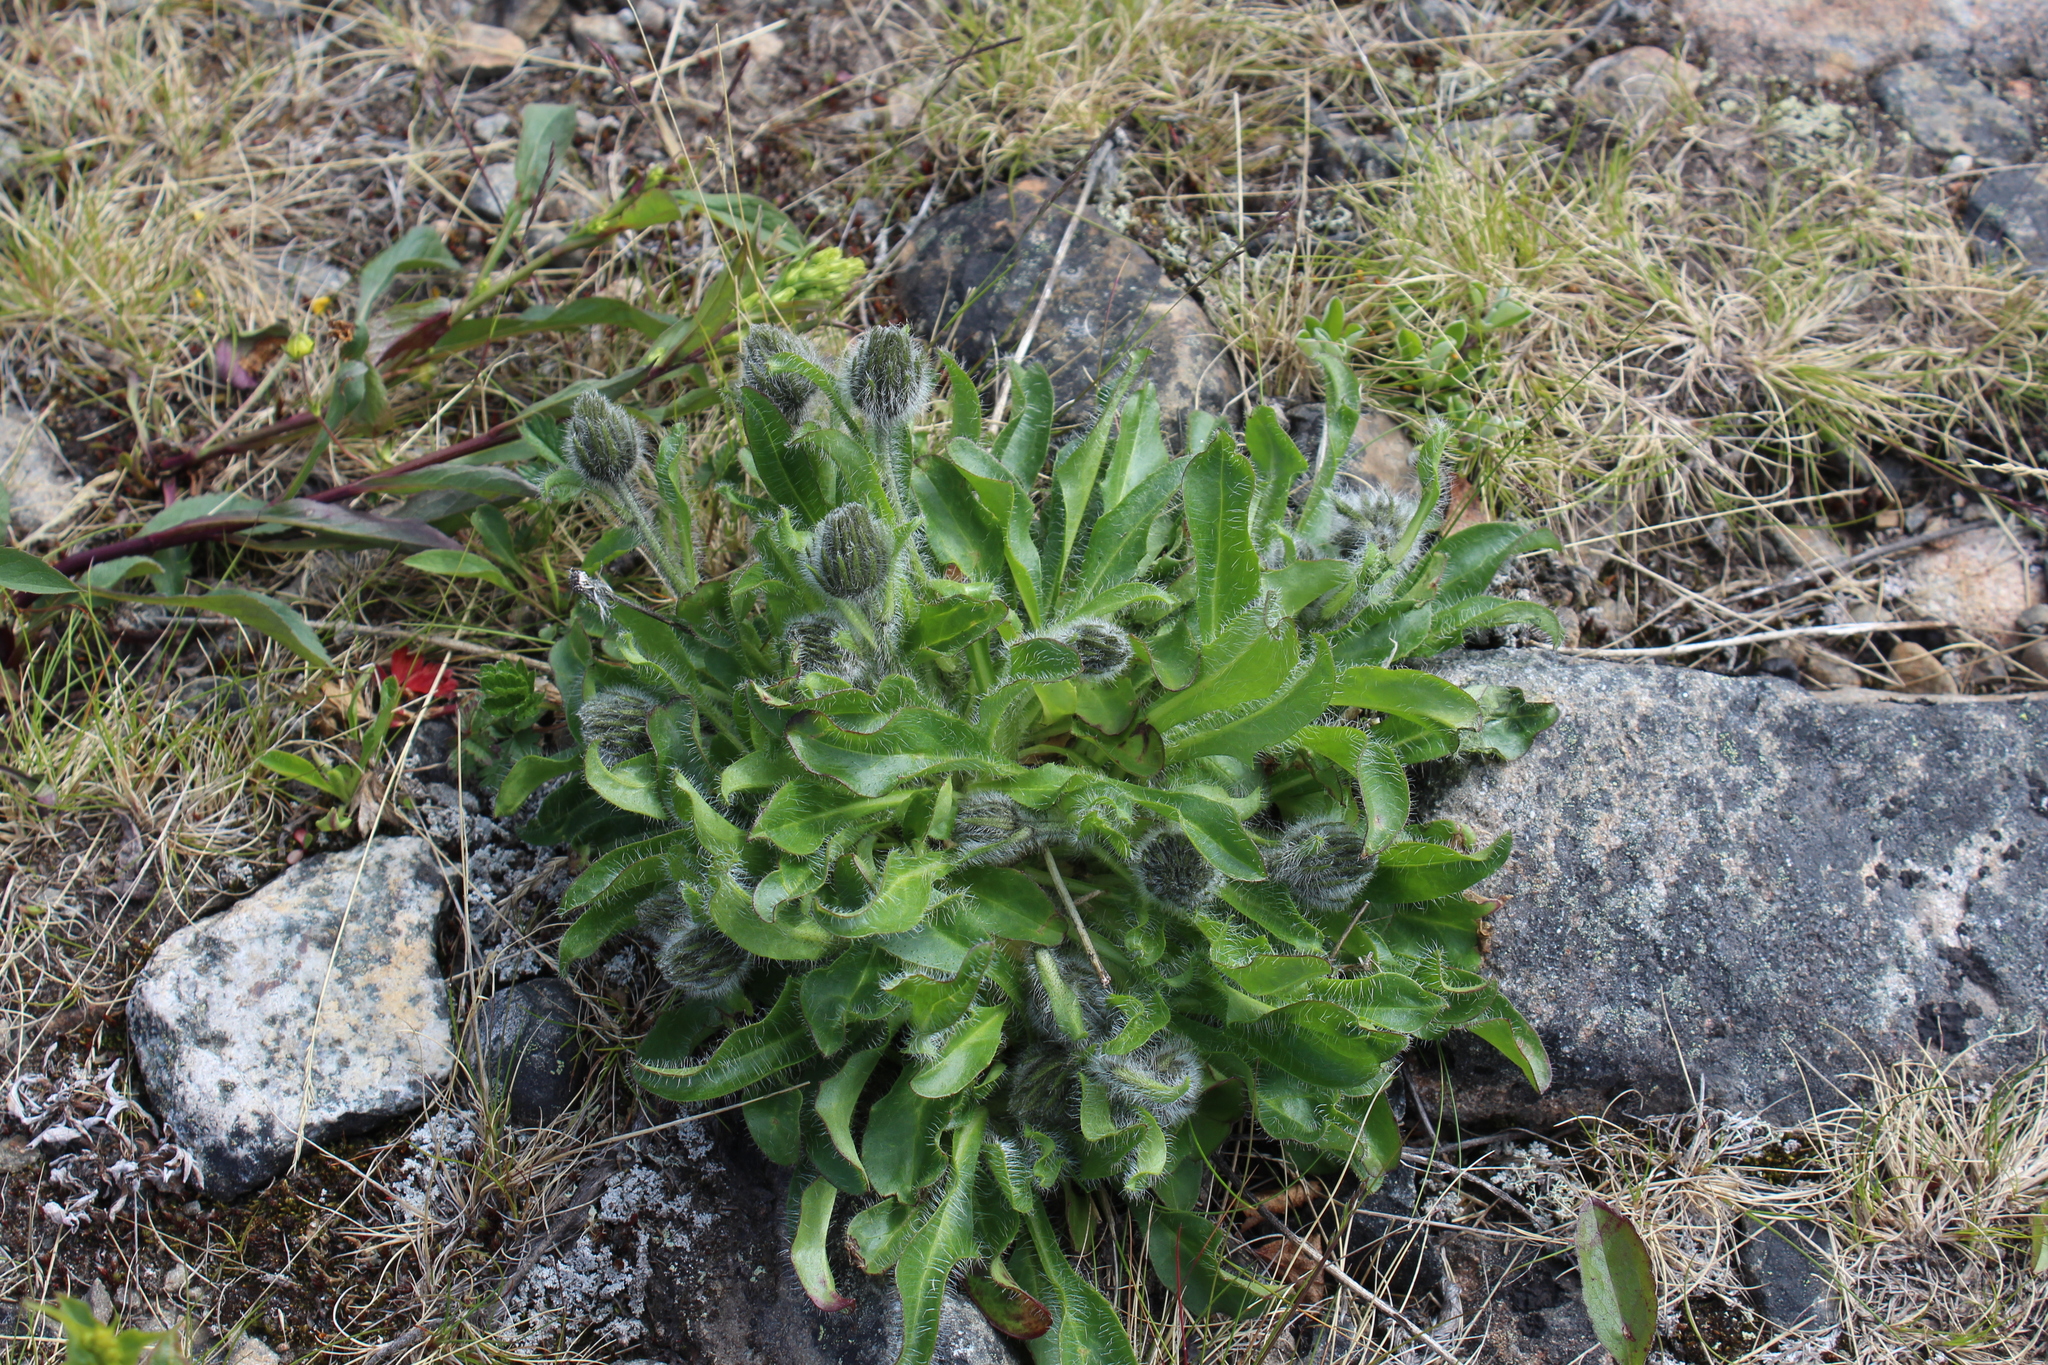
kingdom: Plantae
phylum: Tracheophyta
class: Magnoliopsida
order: Asterales
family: Asteraceae
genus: Hieracium
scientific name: Hieracium alpinum
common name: Alpine hawkweed
